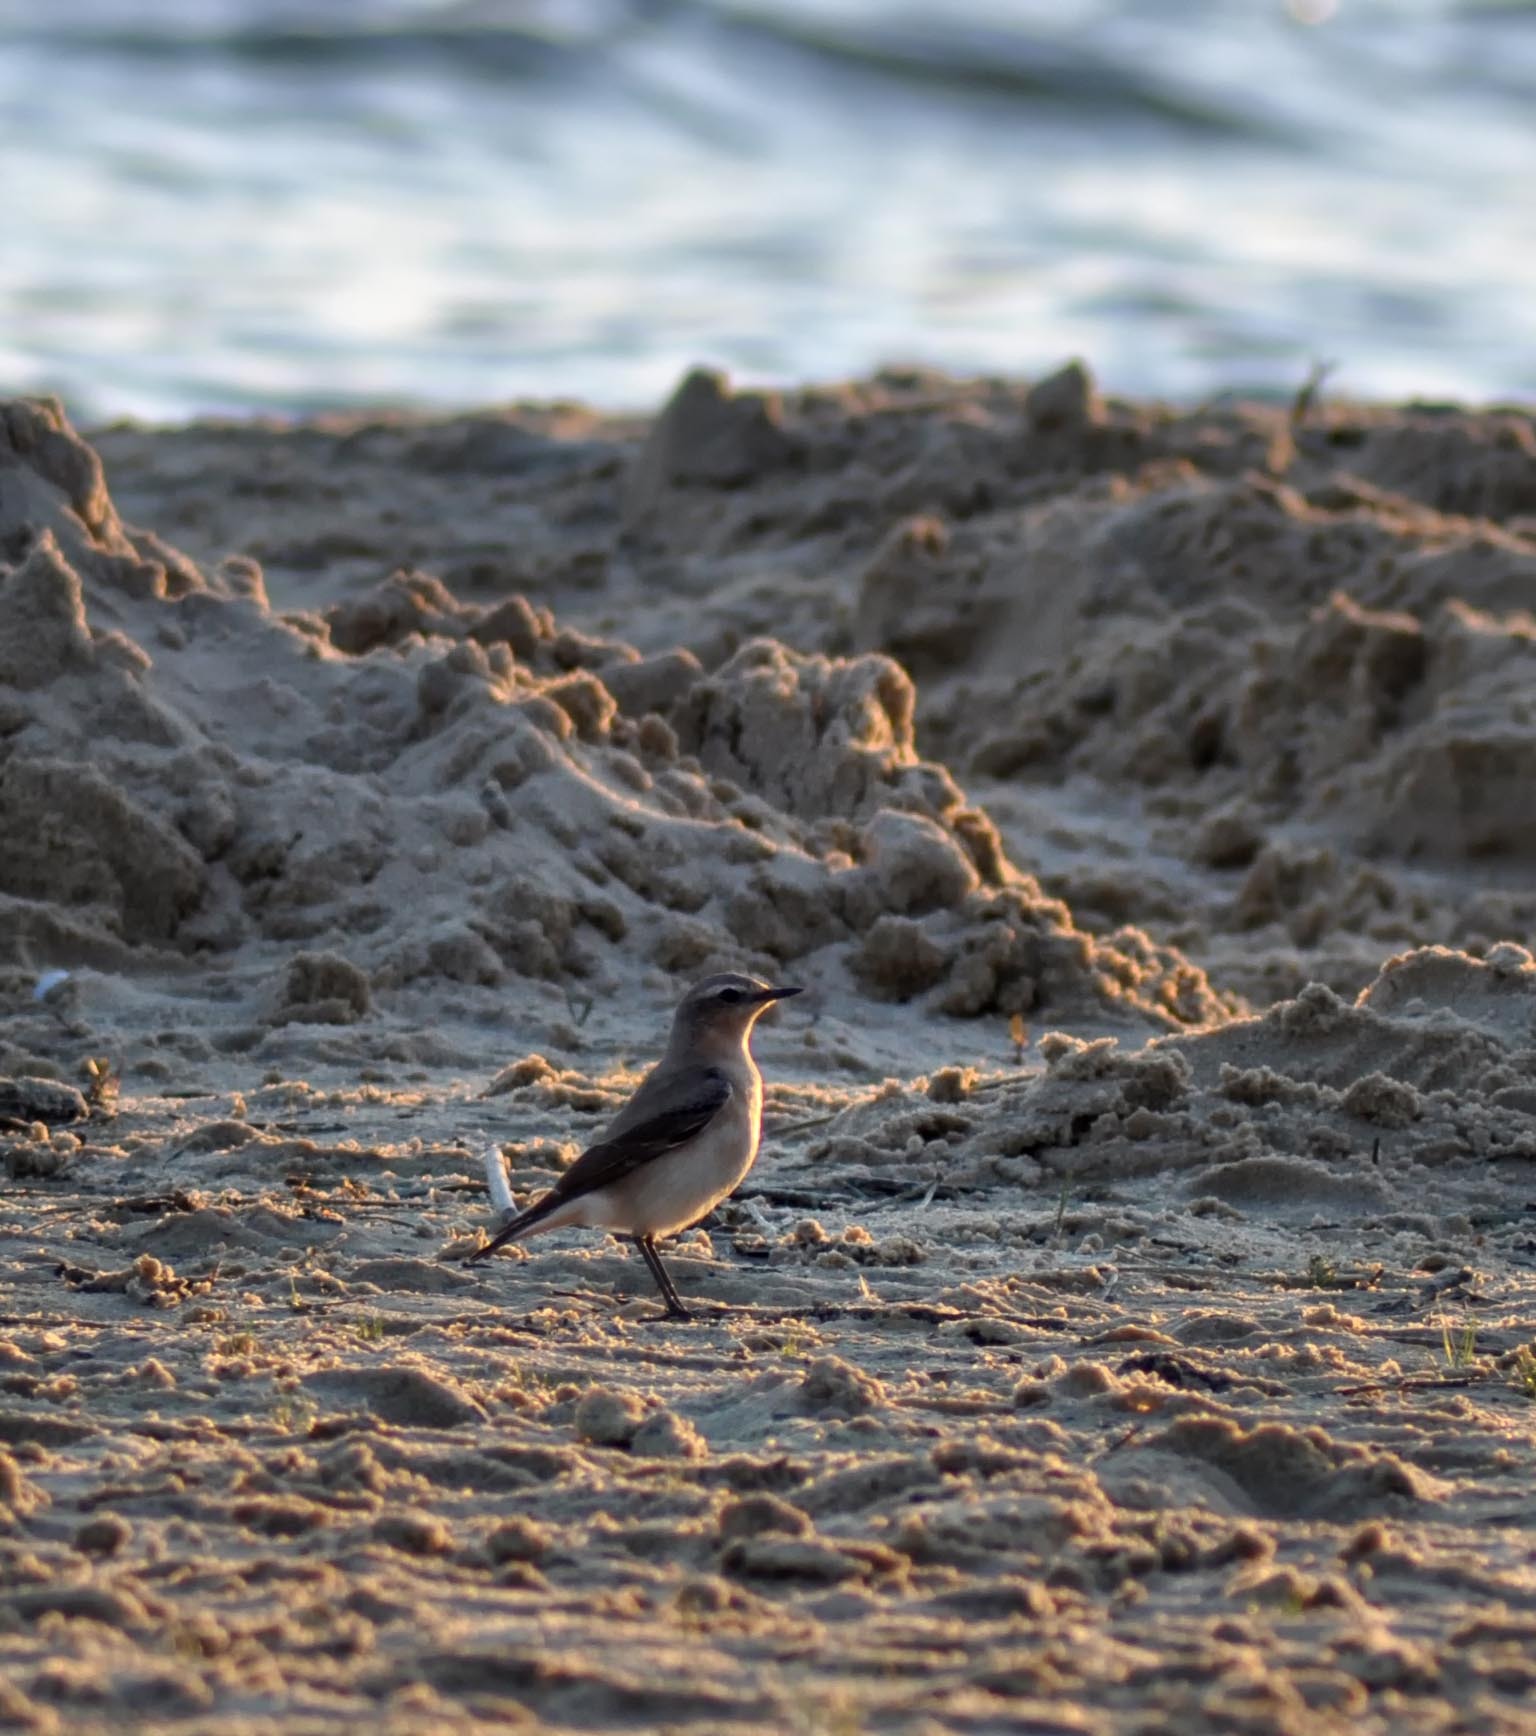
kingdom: Animalia
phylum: Chordata
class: Aves
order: Passeriformes
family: Muscicapidae
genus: Oenanthe
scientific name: Oenanthe oenanthe
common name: Northern wheatear
